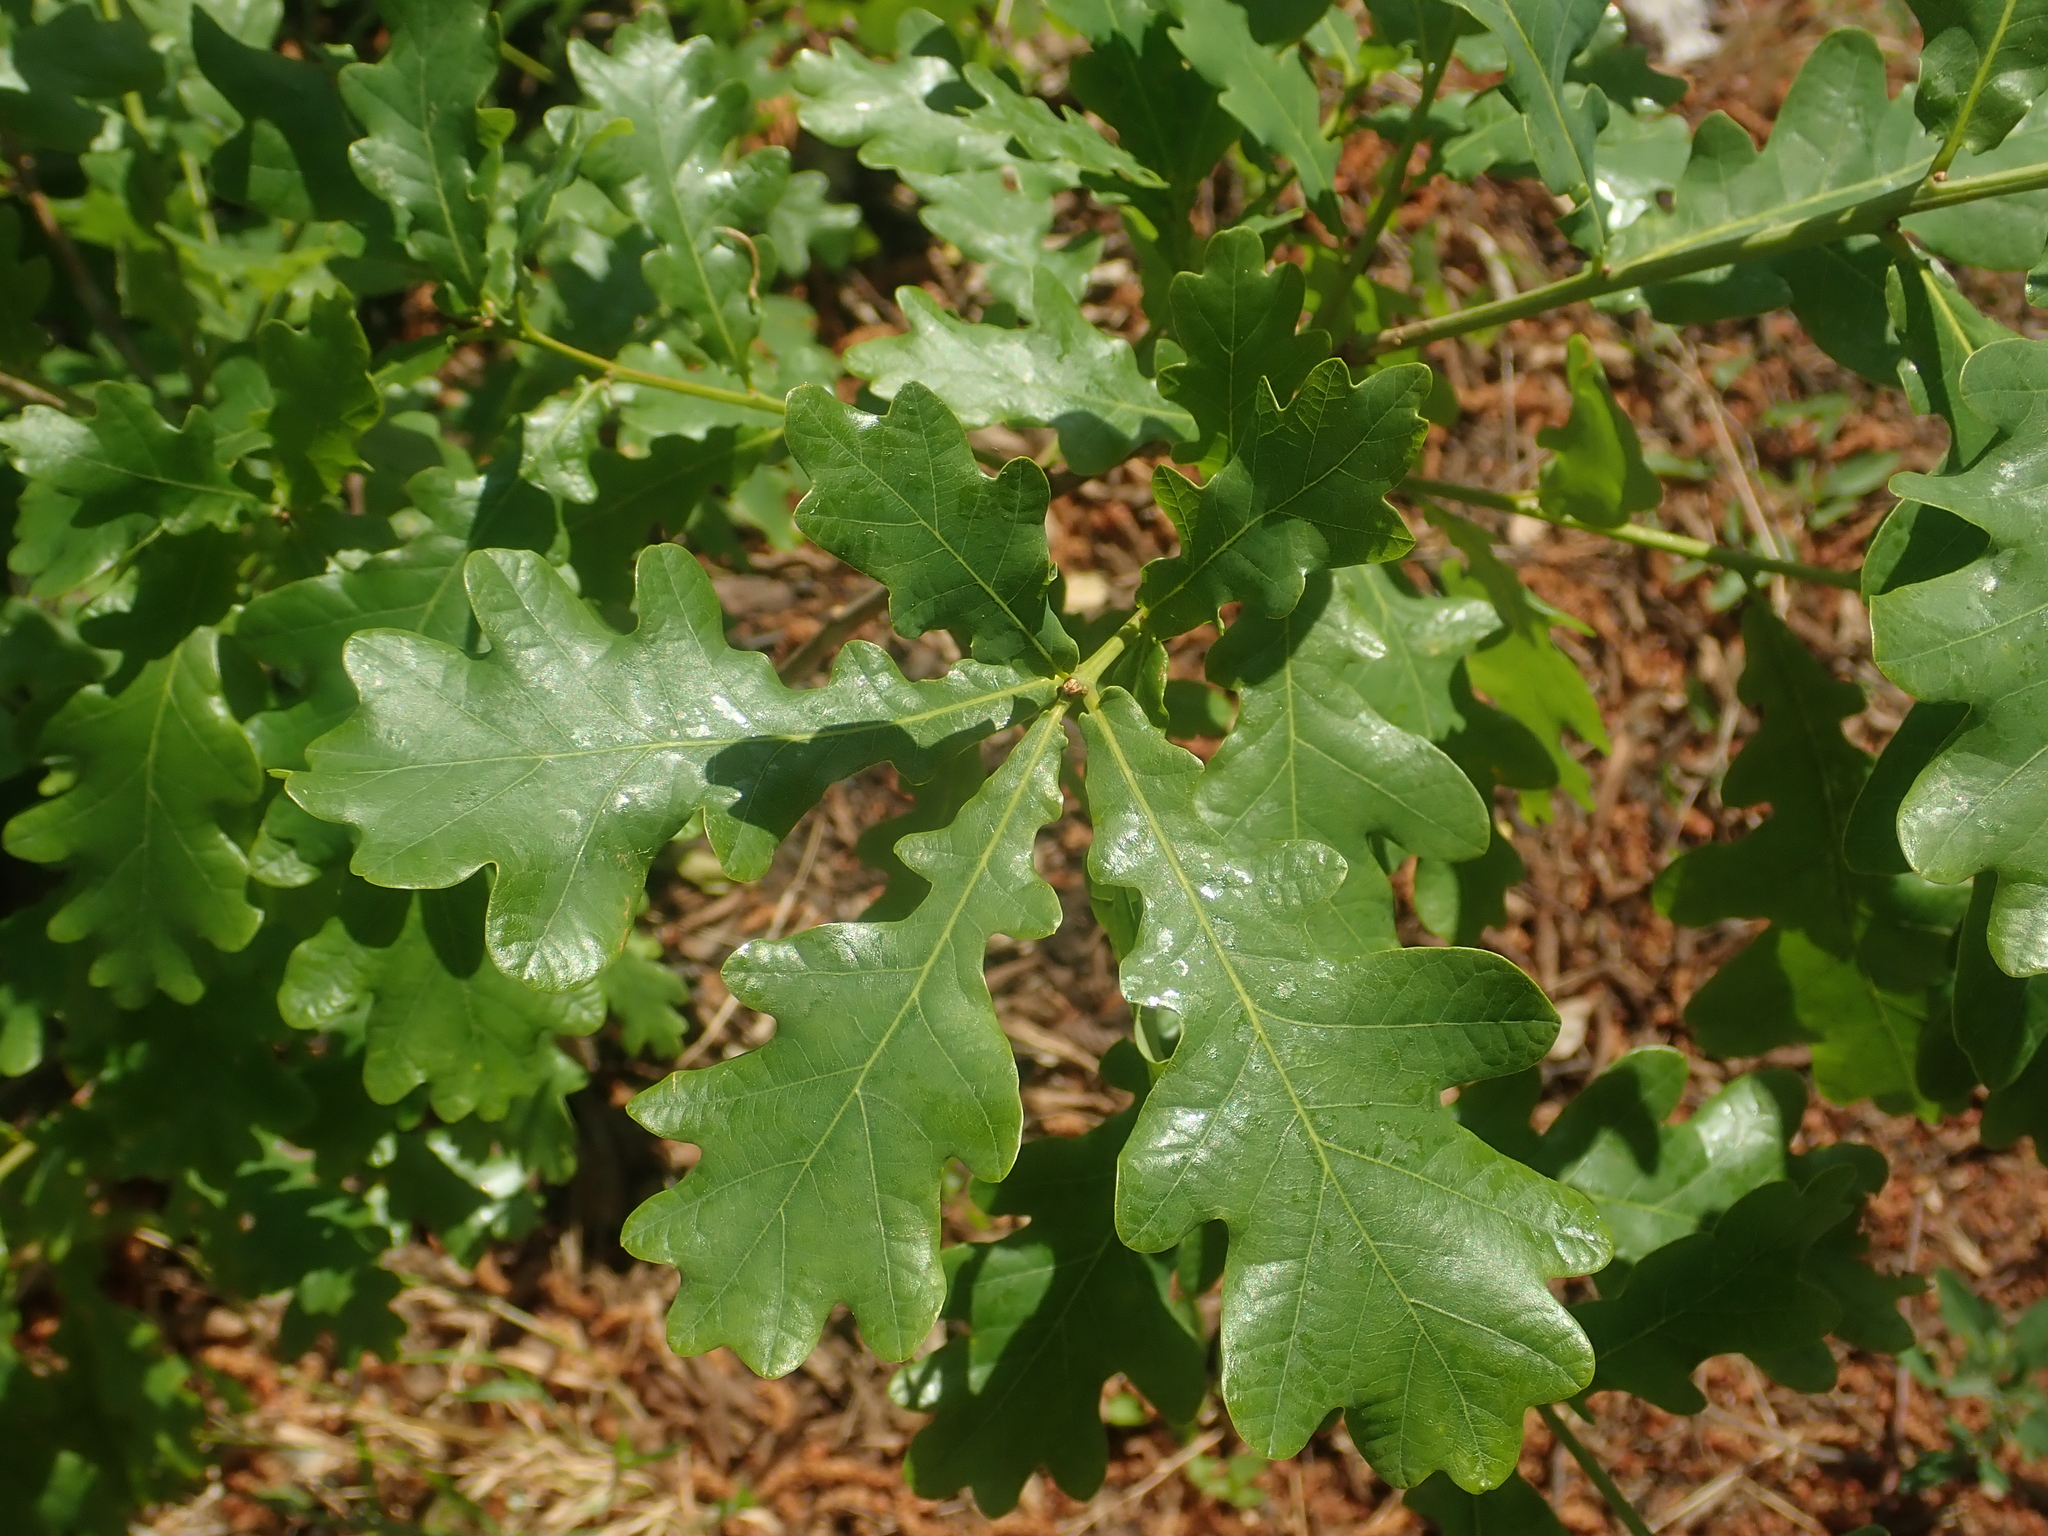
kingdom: Plantae
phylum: Tracheophyta
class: Magnoliopsida
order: Fagales
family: Fagaceae
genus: Quercus
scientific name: Quercus robur
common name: Pedunculate oak
